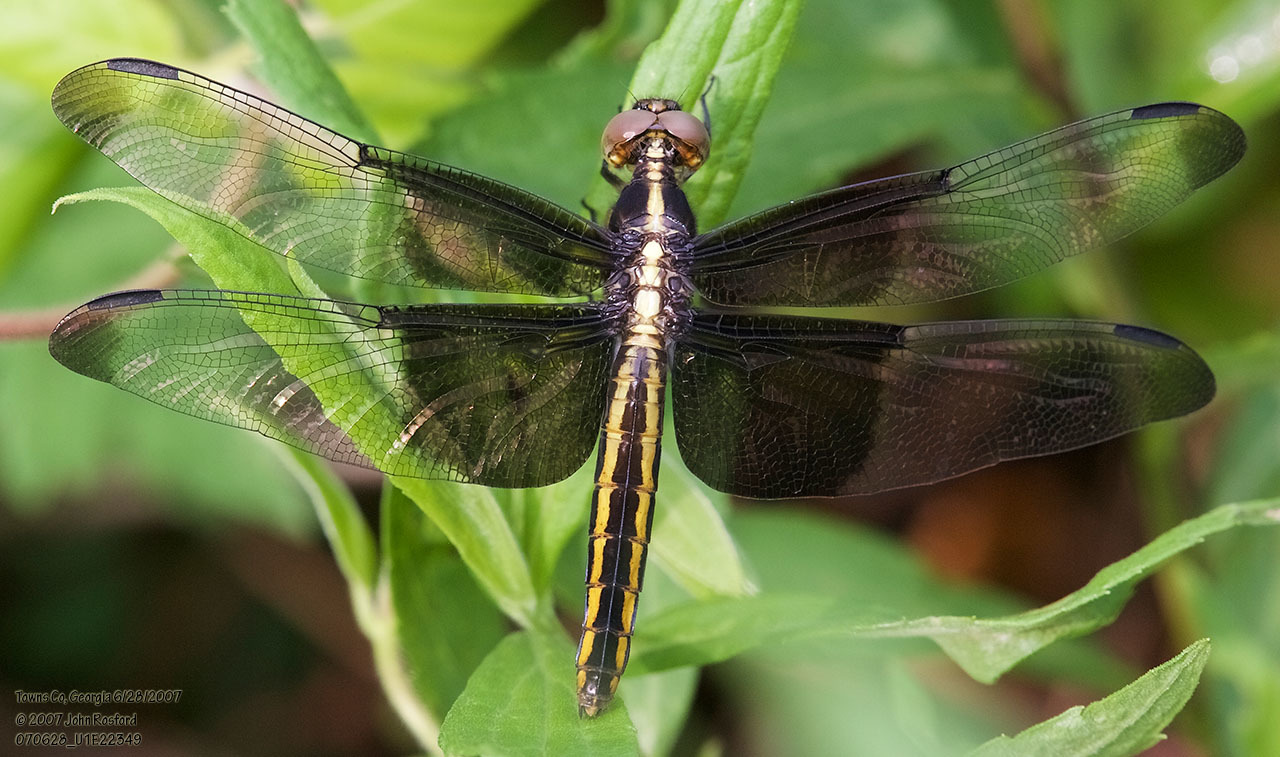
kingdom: Animalia
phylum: Arthropoda
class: Insecta
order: Odonata
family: Libellulidae
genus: Libellula
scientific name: Libellula luctuosa
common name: Widow skimmer
